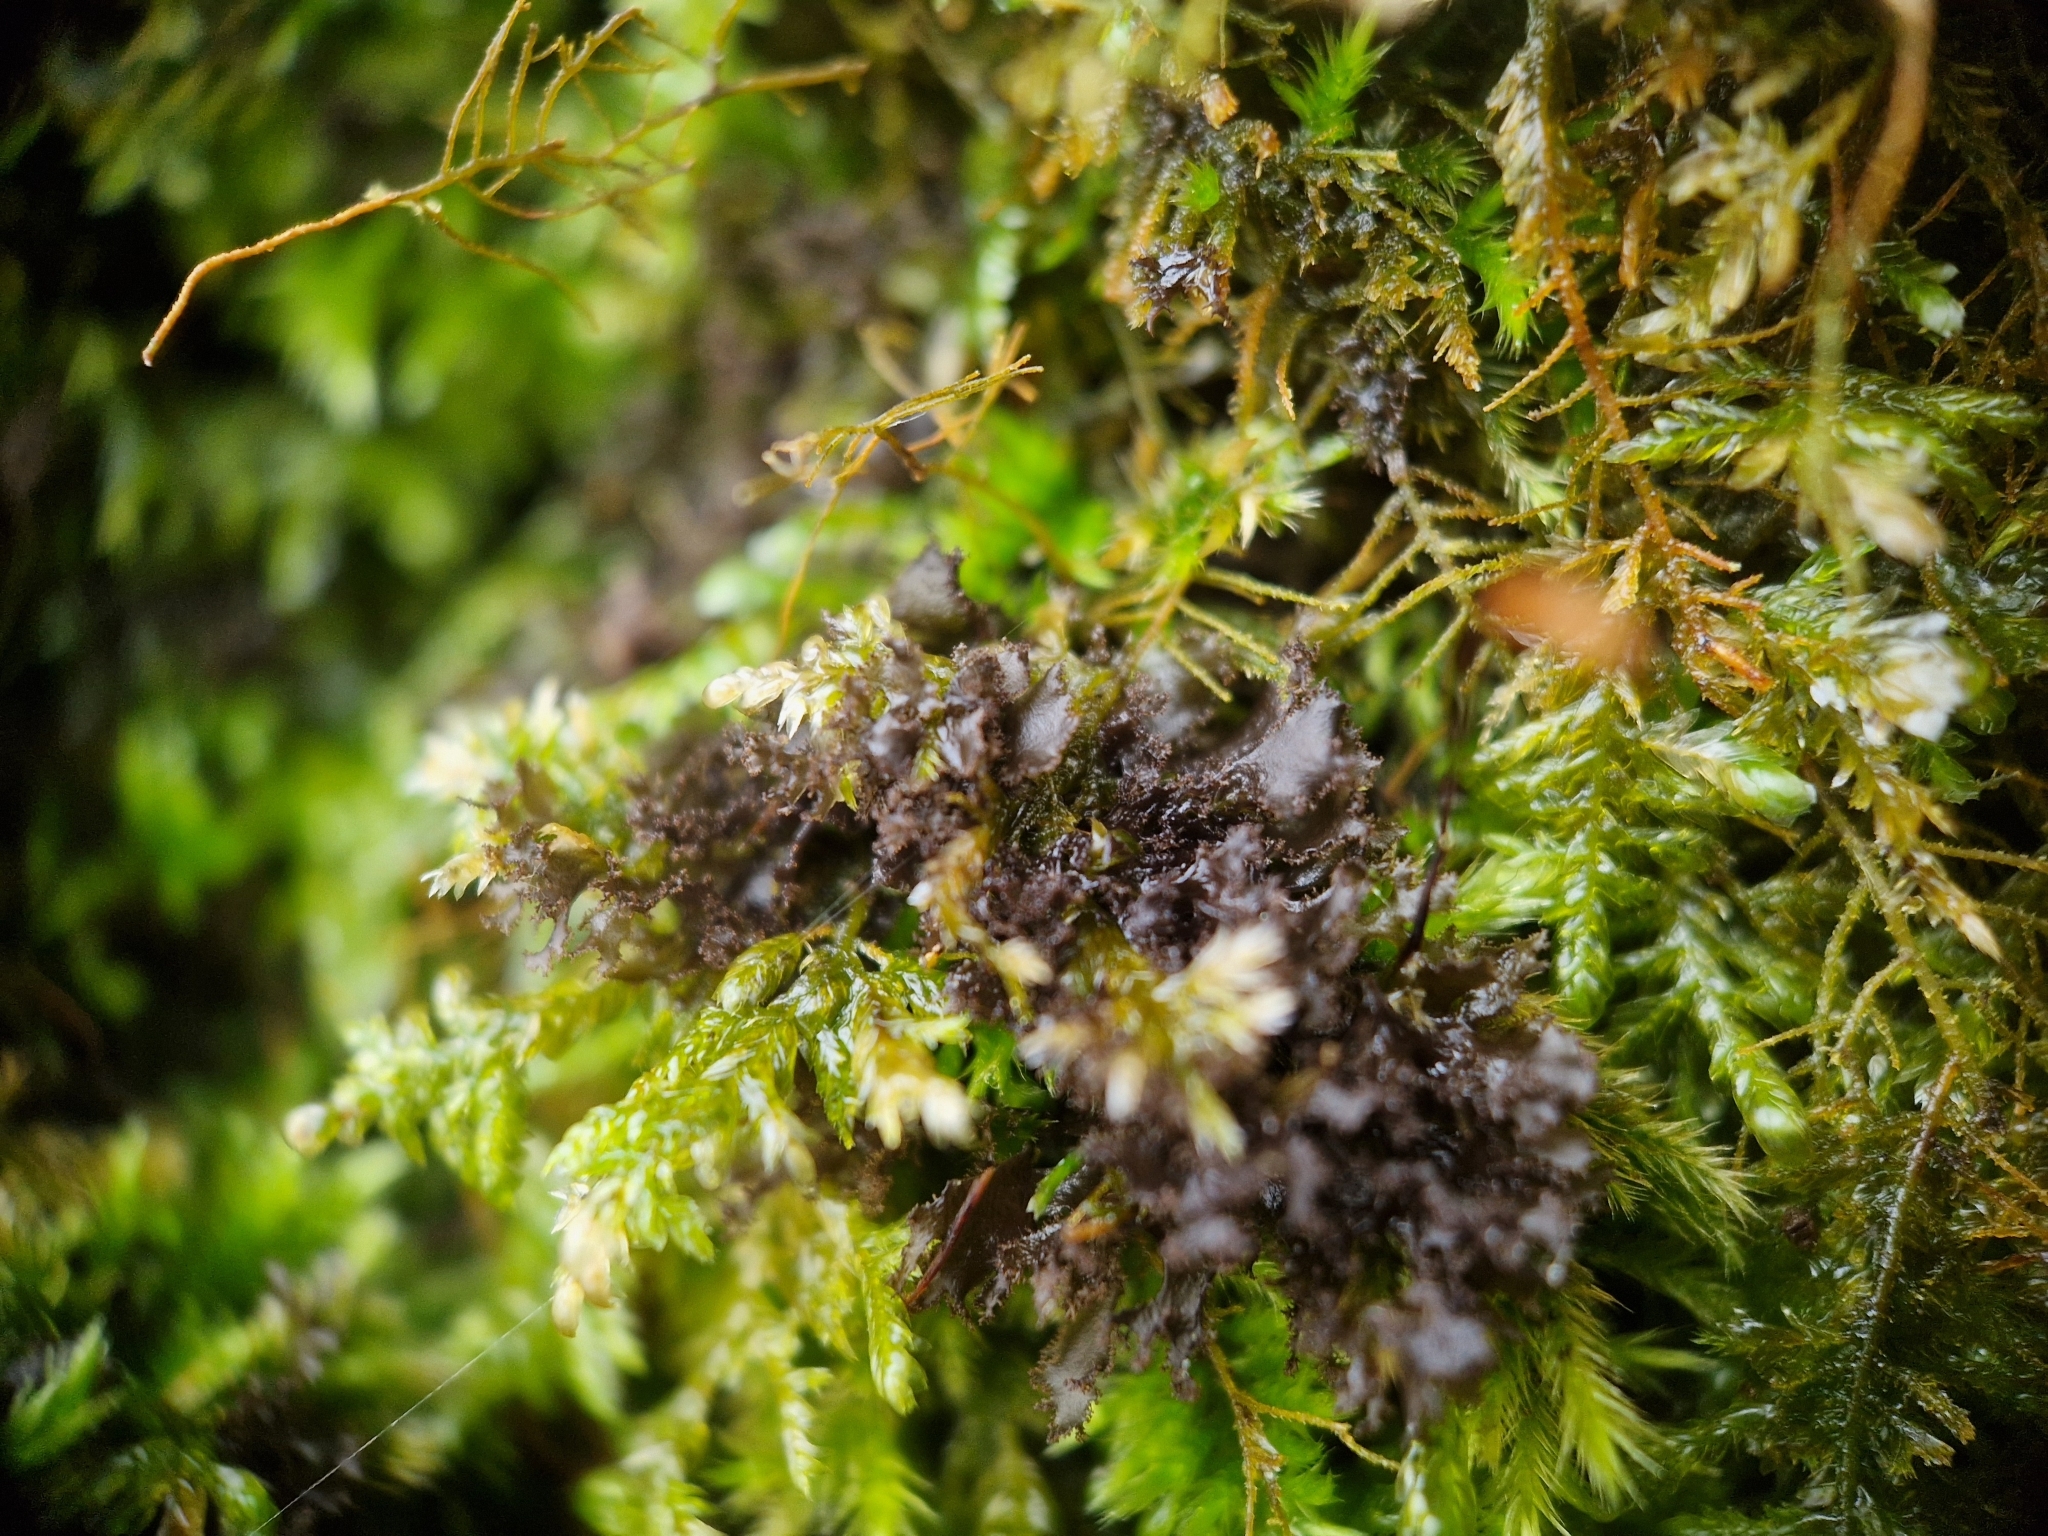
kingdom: Fungi
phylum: Ascomycota
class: Lecanoromycetes
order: Peltigerales
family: Collemataceae
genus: Scytinium
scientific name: Scytinium lichenoides
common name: Tattered jellyskin lichen
